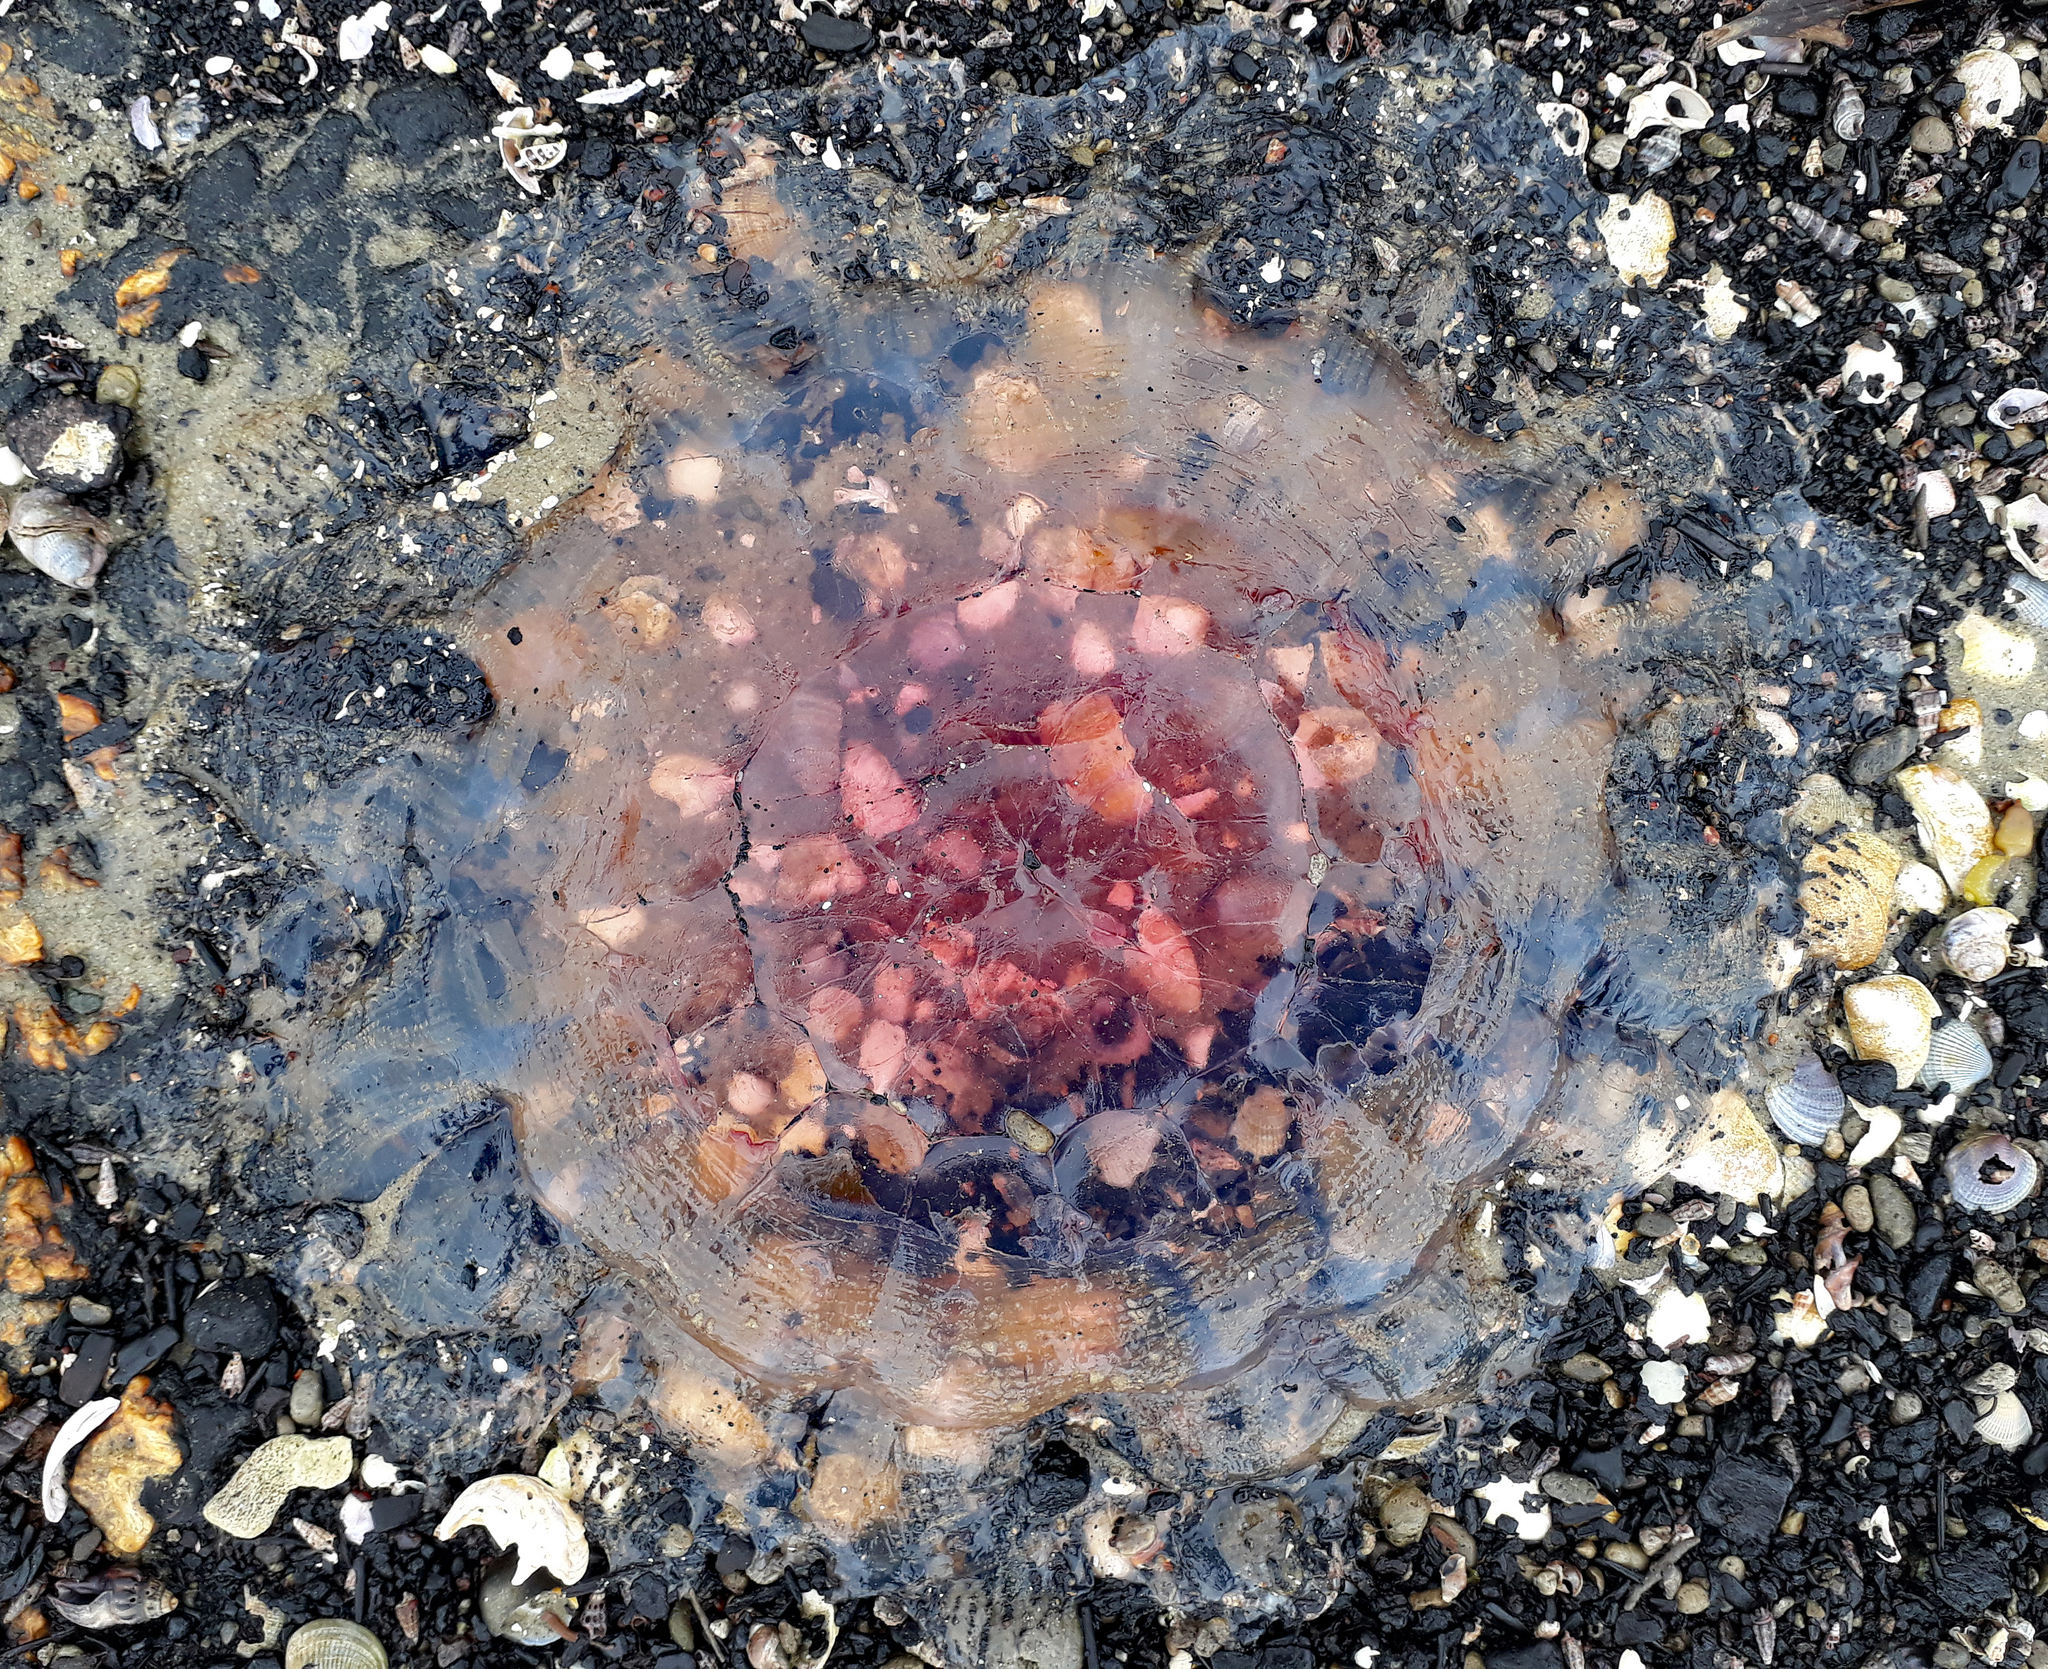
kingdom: Animalia
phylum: Cnidaria
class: Scyphozoa
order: Semaeostomeae
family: Cyaneidae
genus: Cyanea
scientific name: Cyanea
